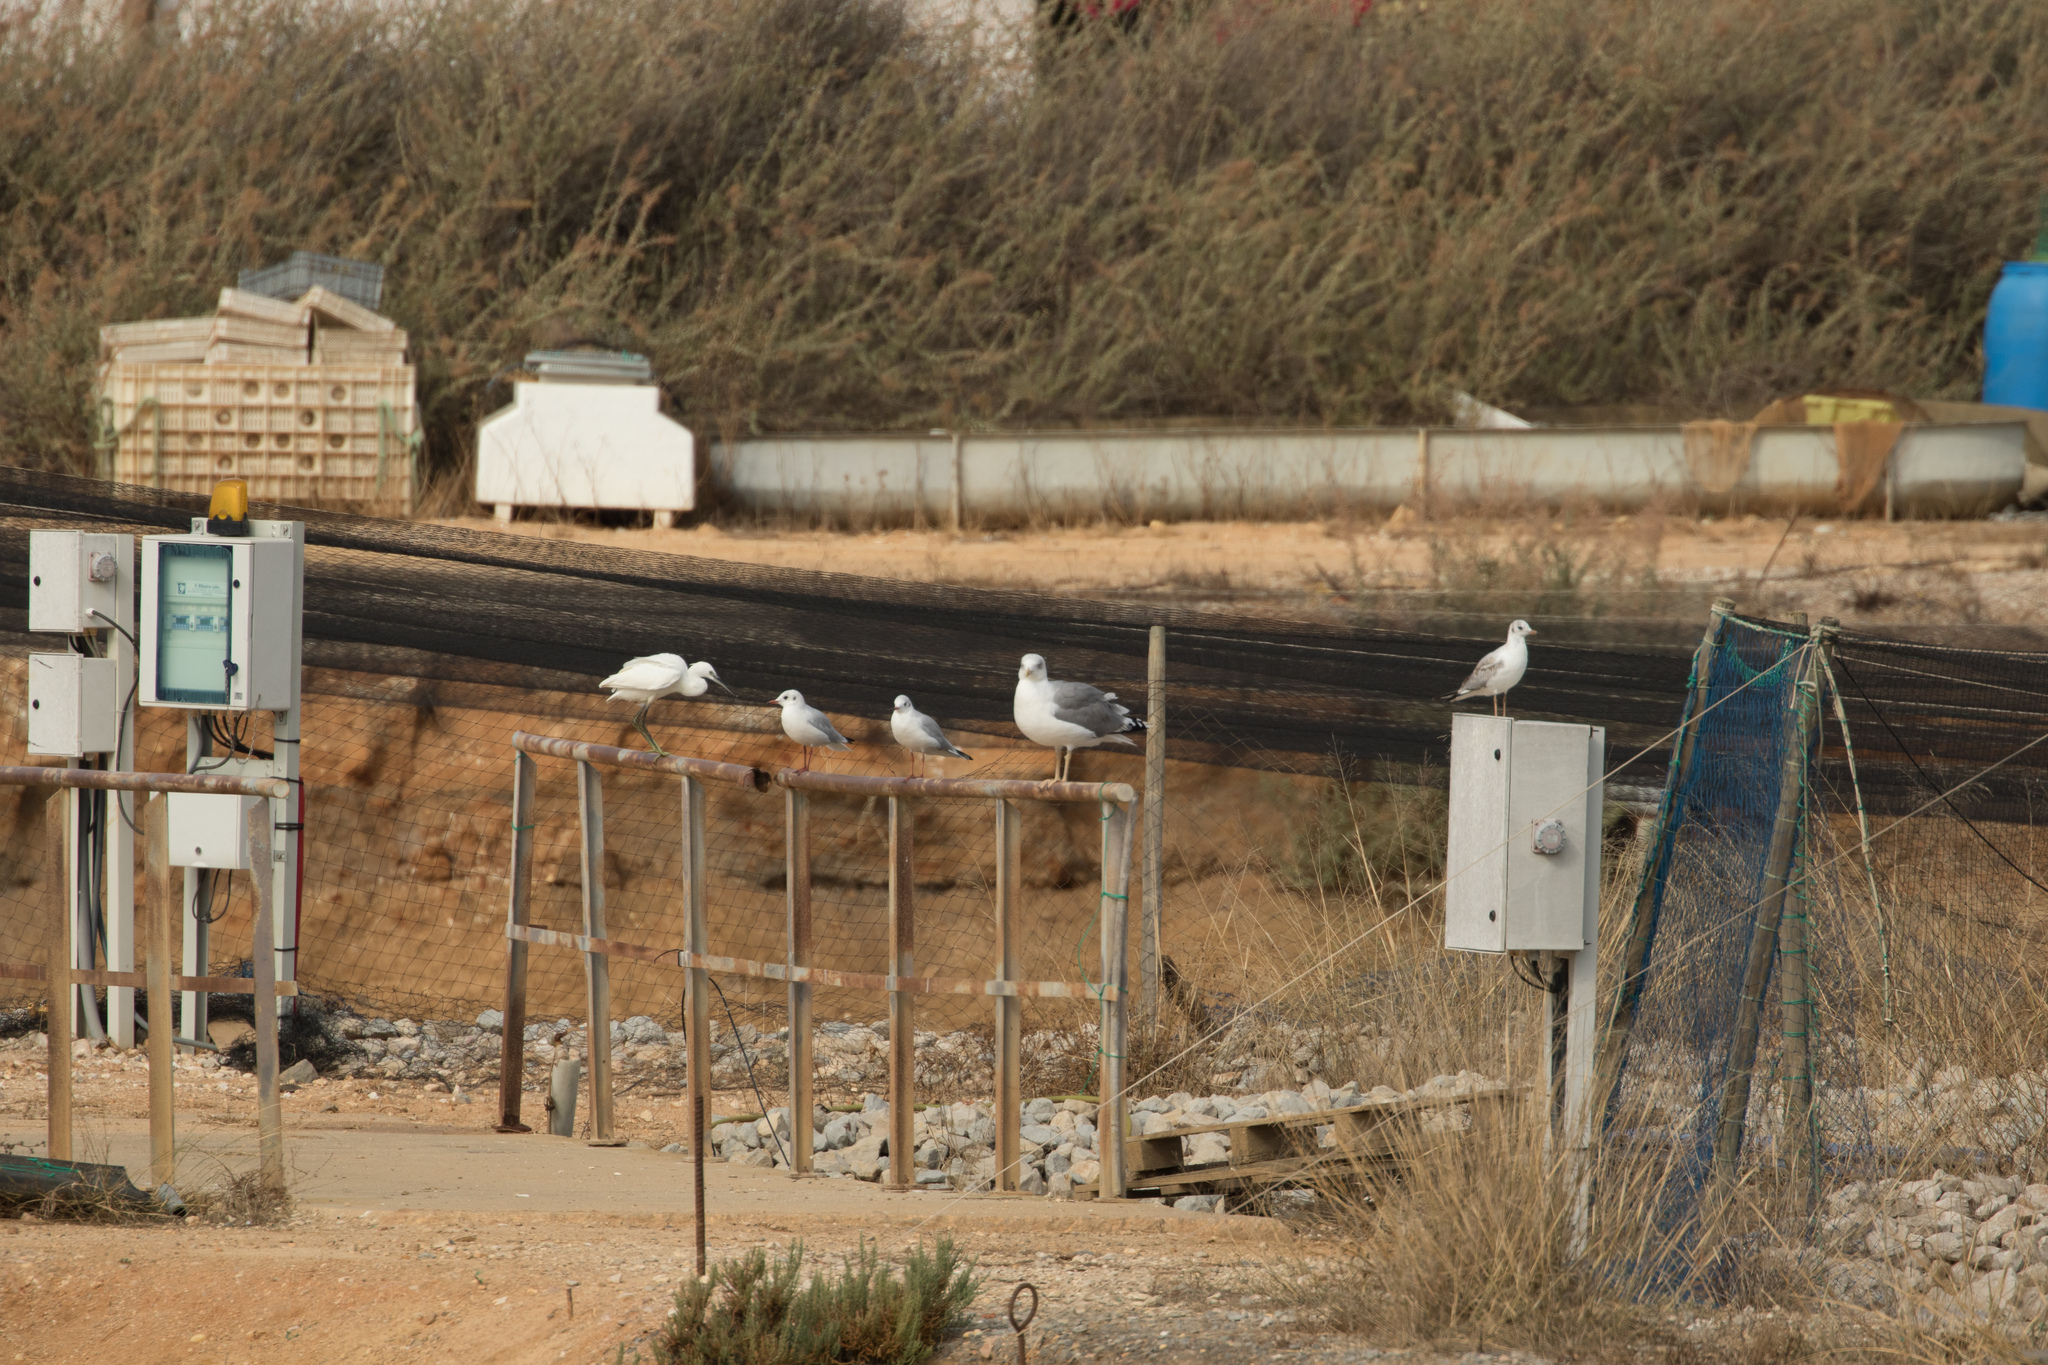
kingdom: Animalia
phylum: Chordata
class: Aves
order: Pelecaniformes
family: Ardeidae
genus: Egretta
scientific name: Egretta garzetta
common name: Little egret
